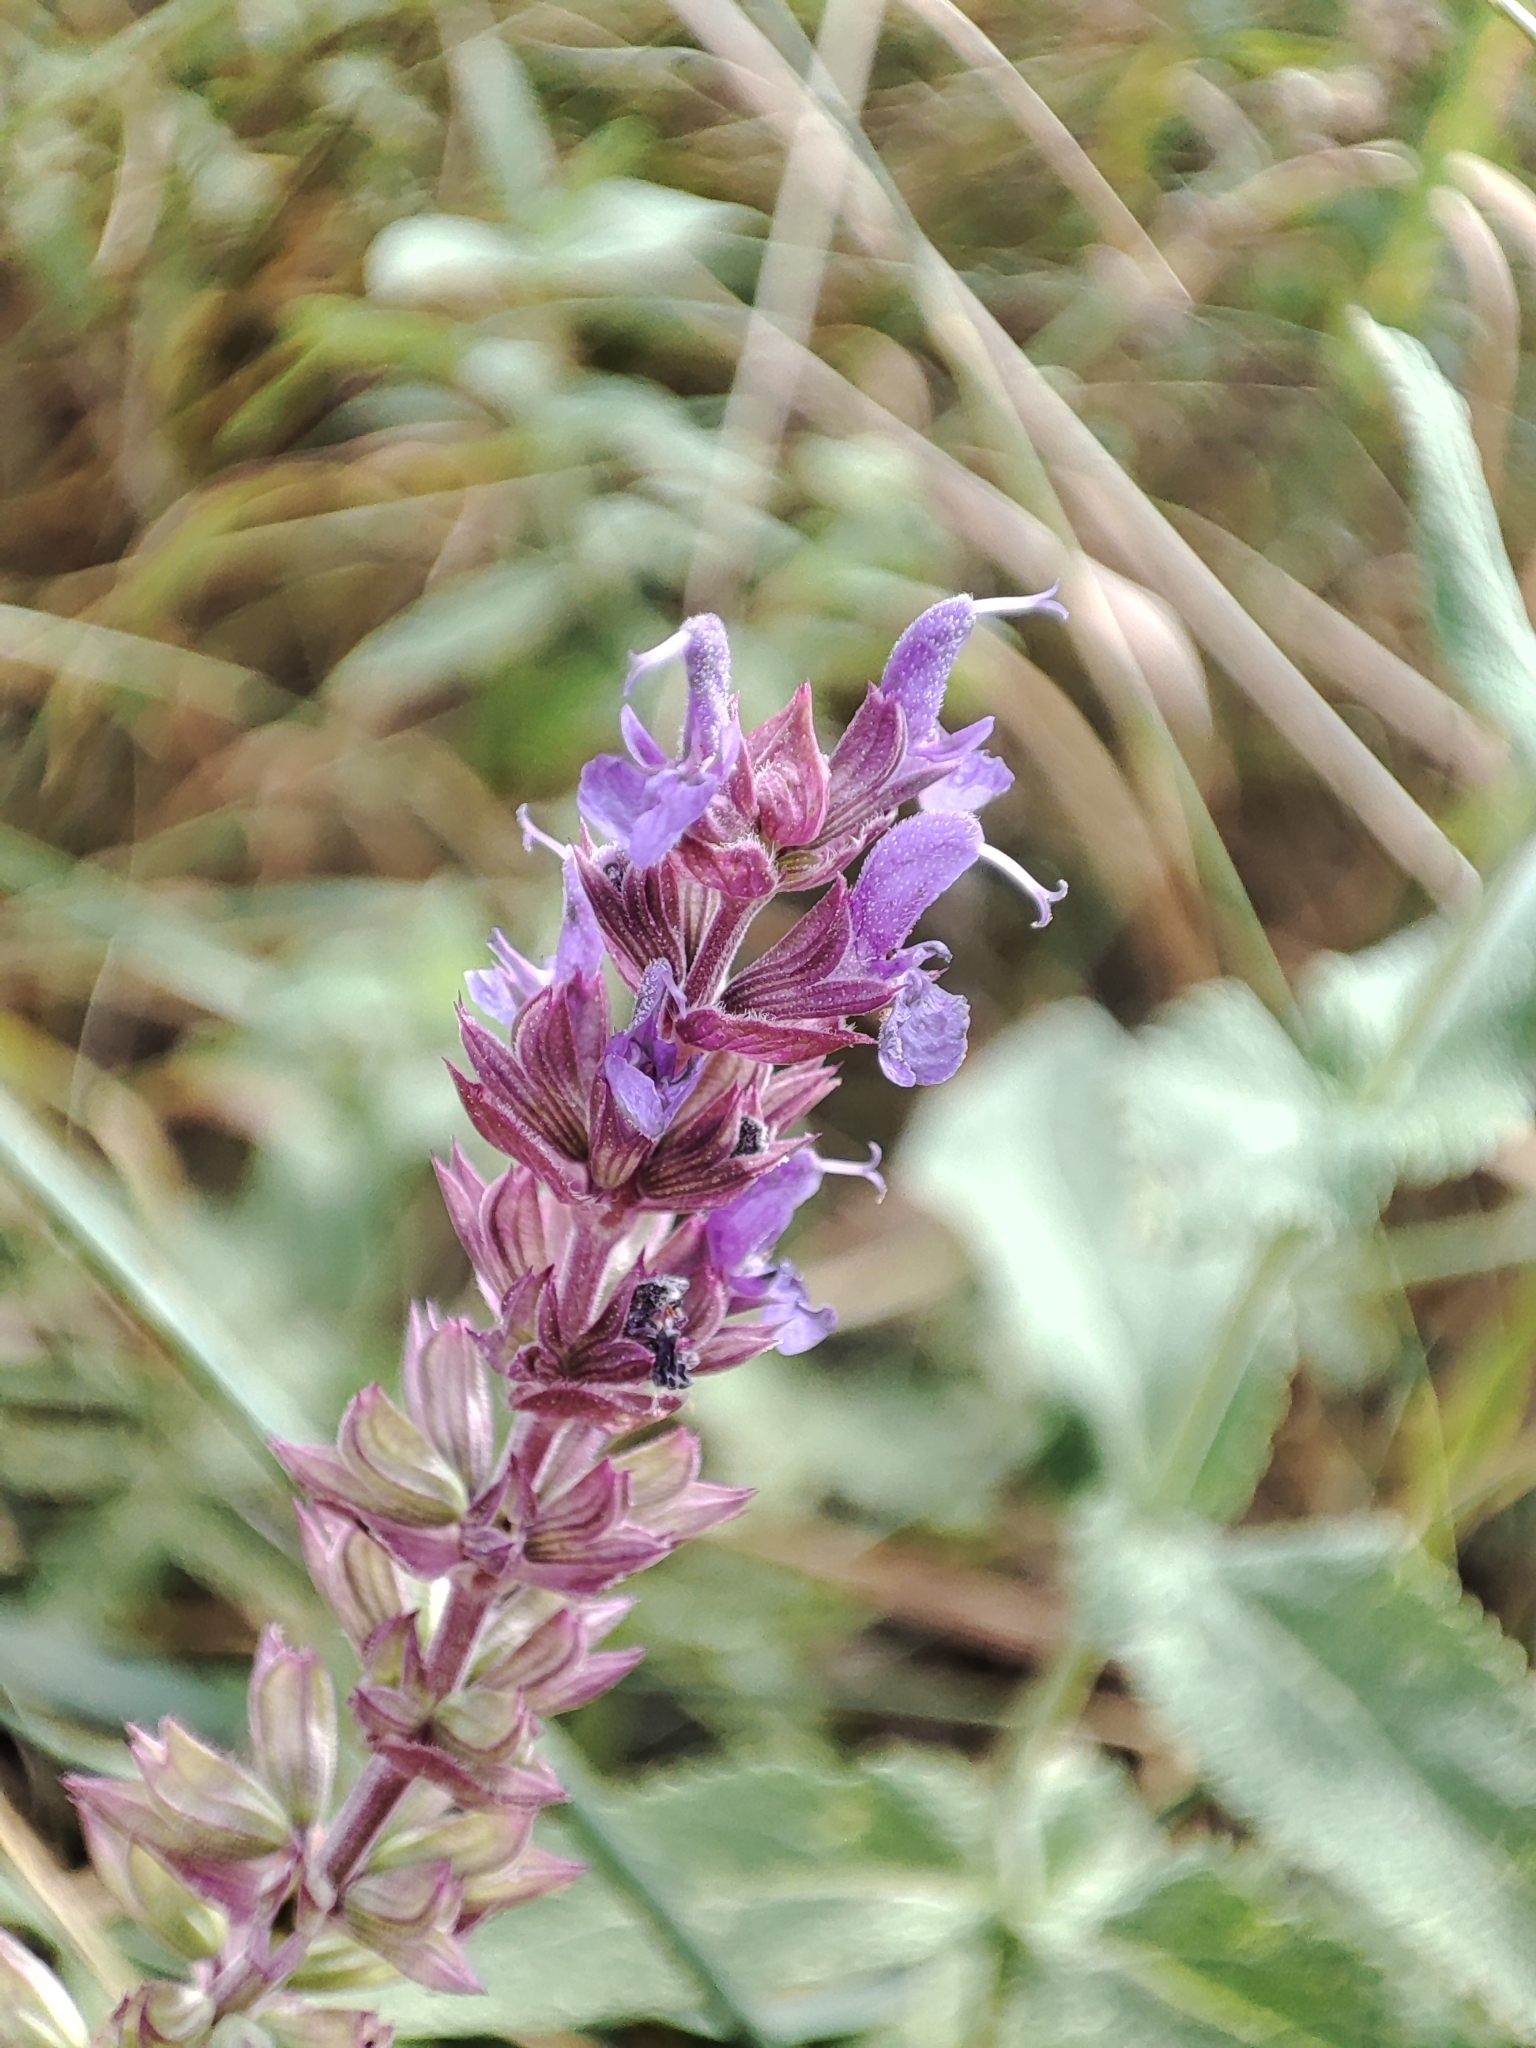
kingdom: Plantae
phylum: Tracheophyta
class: Magnoliopsida
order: Lamiales
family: Lamiaceae
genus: Salvia
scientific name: Salvia nemorosa
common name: Balkan clary
